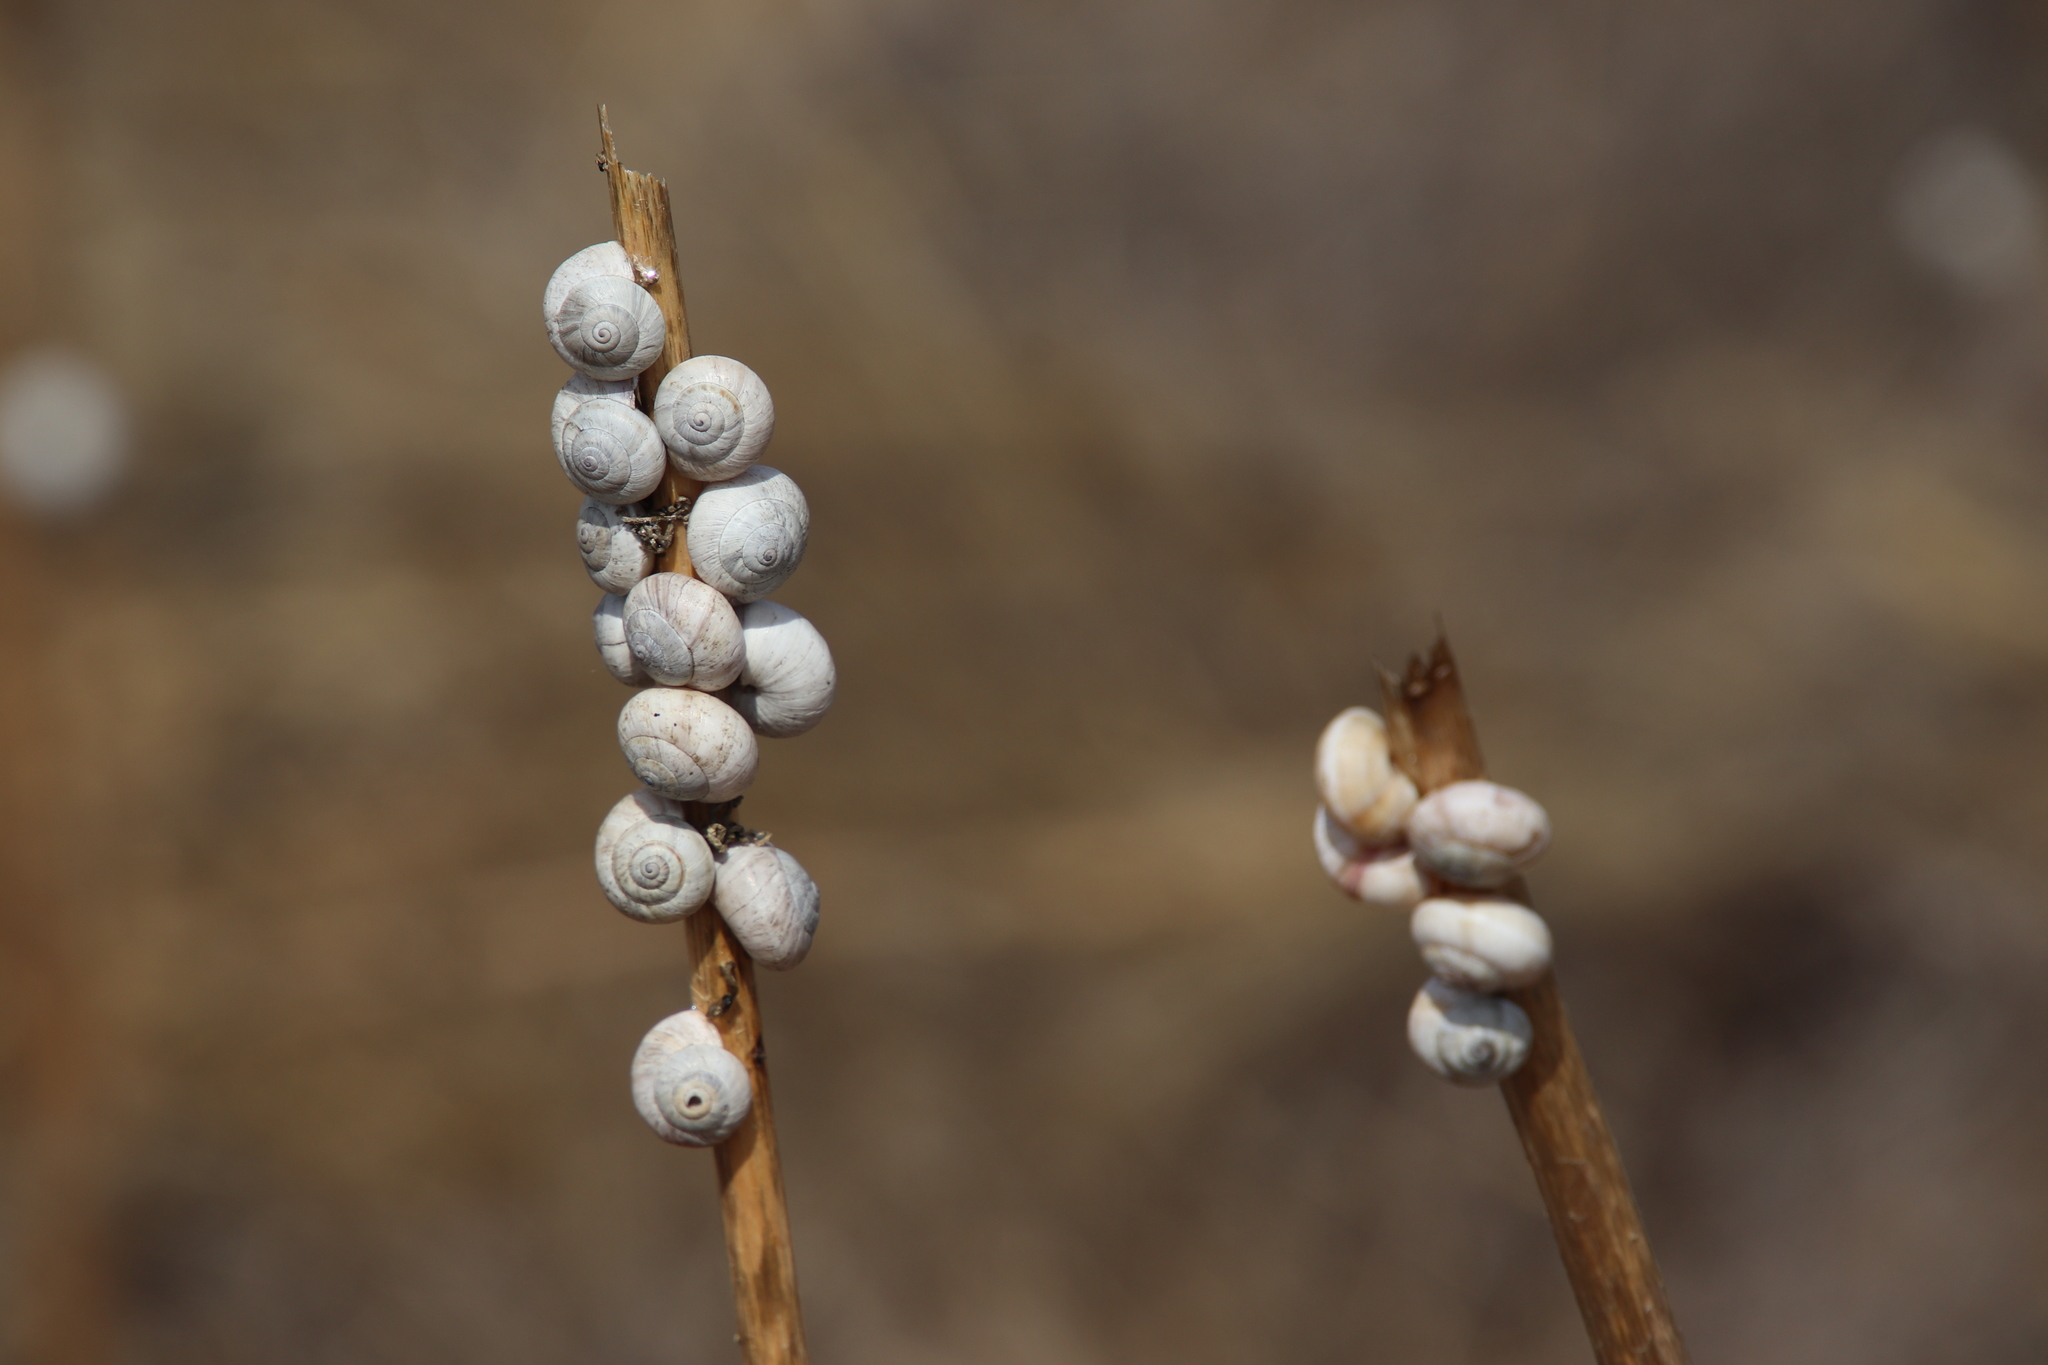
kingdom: Animalia
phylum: Mollusca
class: Gastropoda
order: Stylommatophora
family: Helicidae
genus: Theba
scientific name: Theba pisana
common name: White snail
